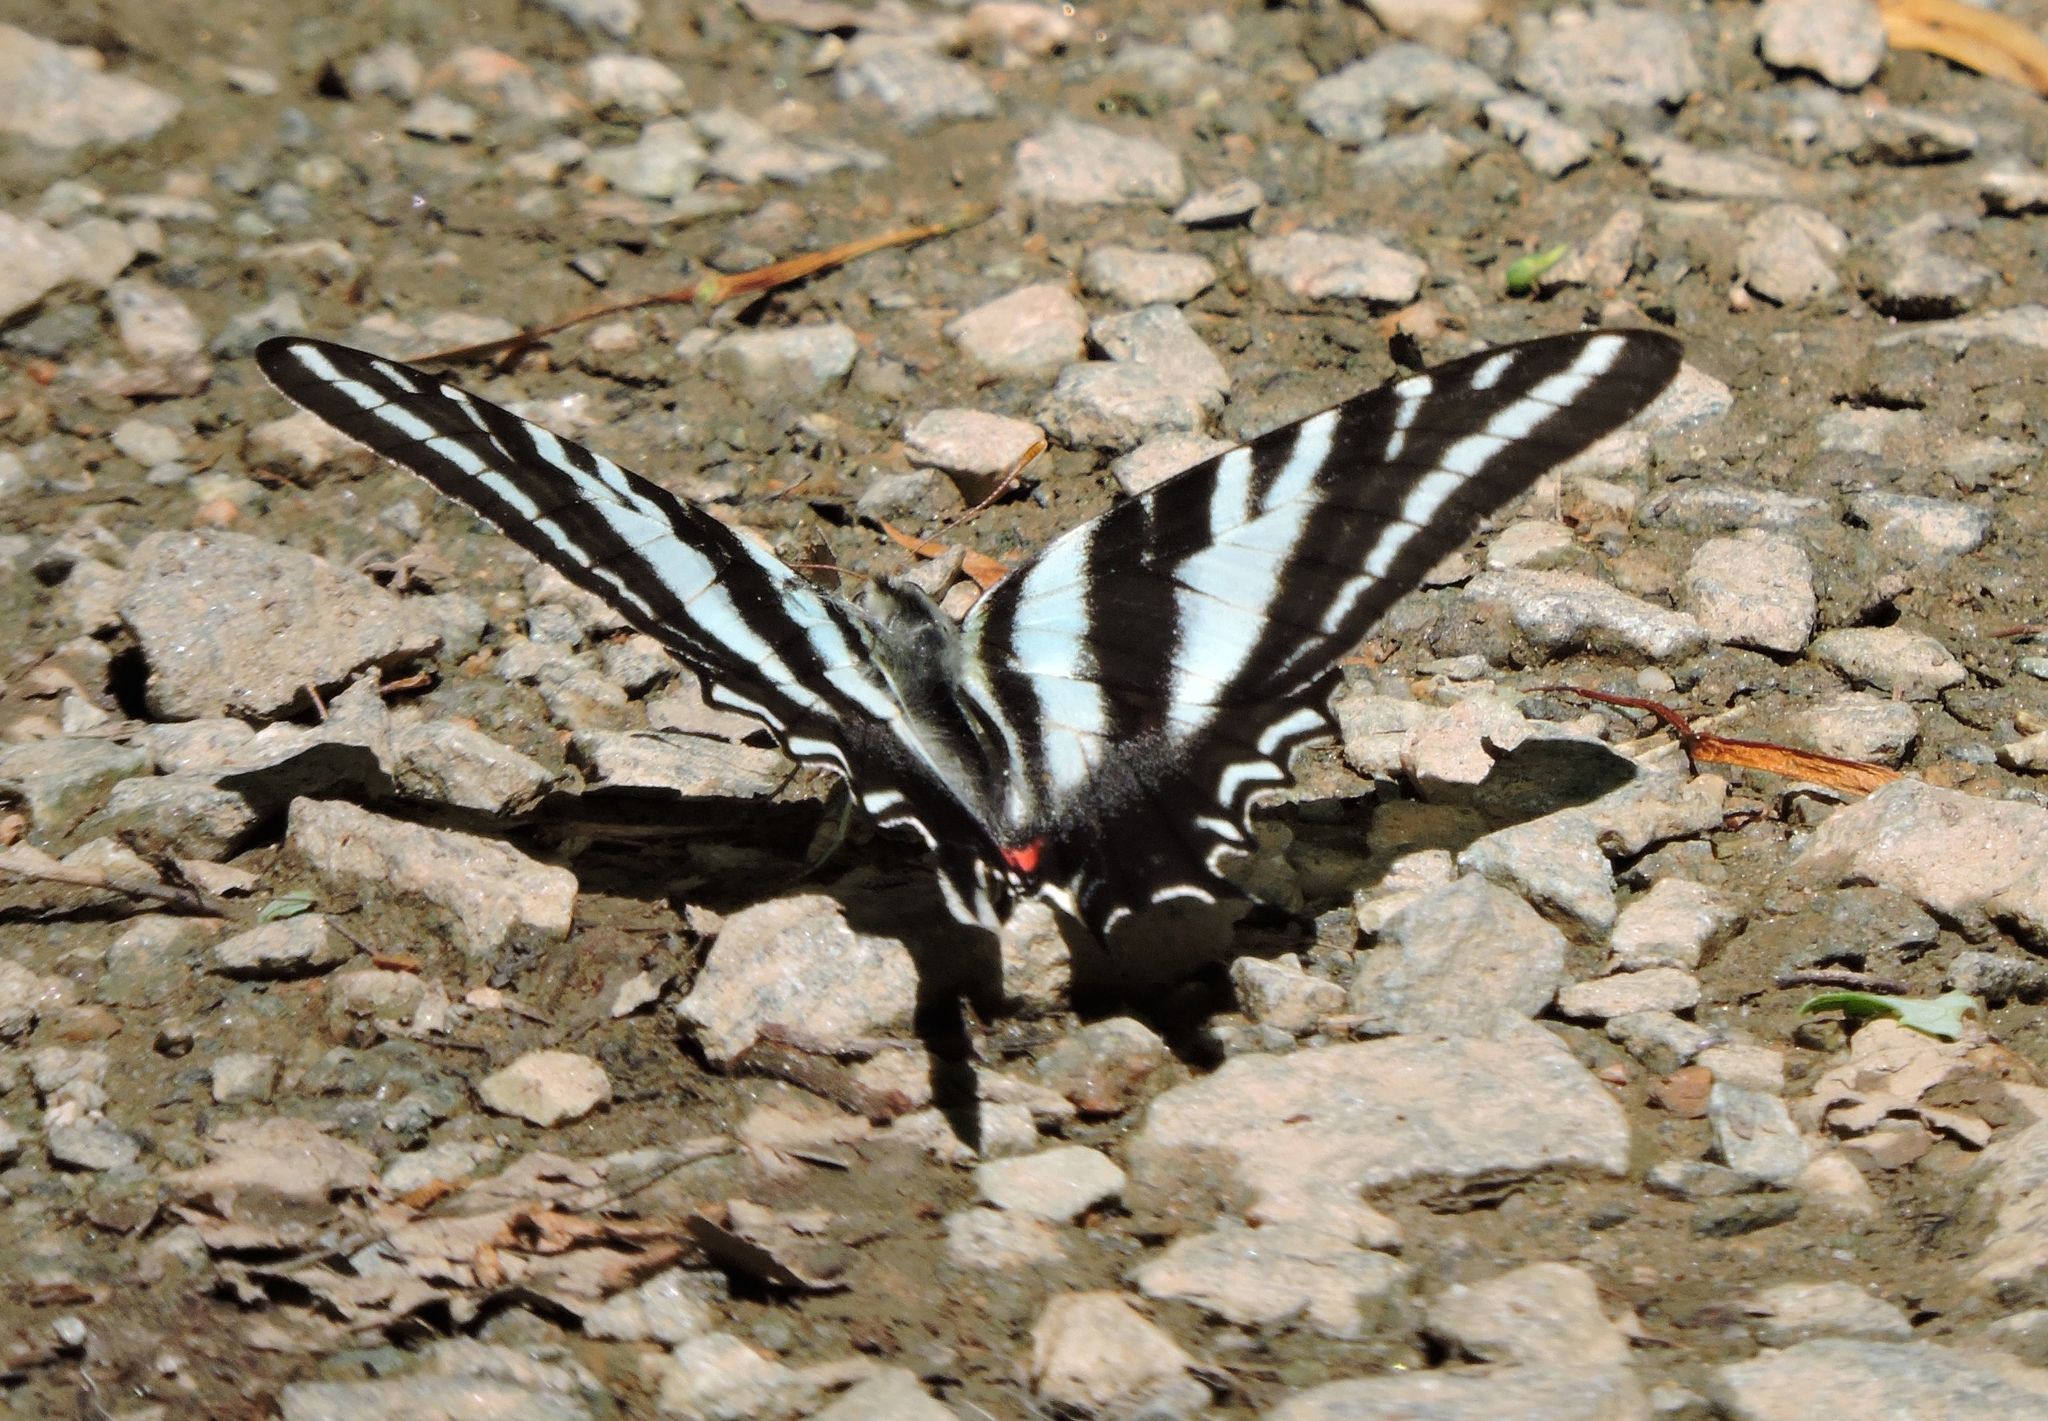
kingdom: Animalia
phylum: Arthropoda
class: Insecta
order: Lepidoptera
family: Papilionidae
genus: Protographium
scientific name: Protographium marcellus
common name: Zebra swallowtail
